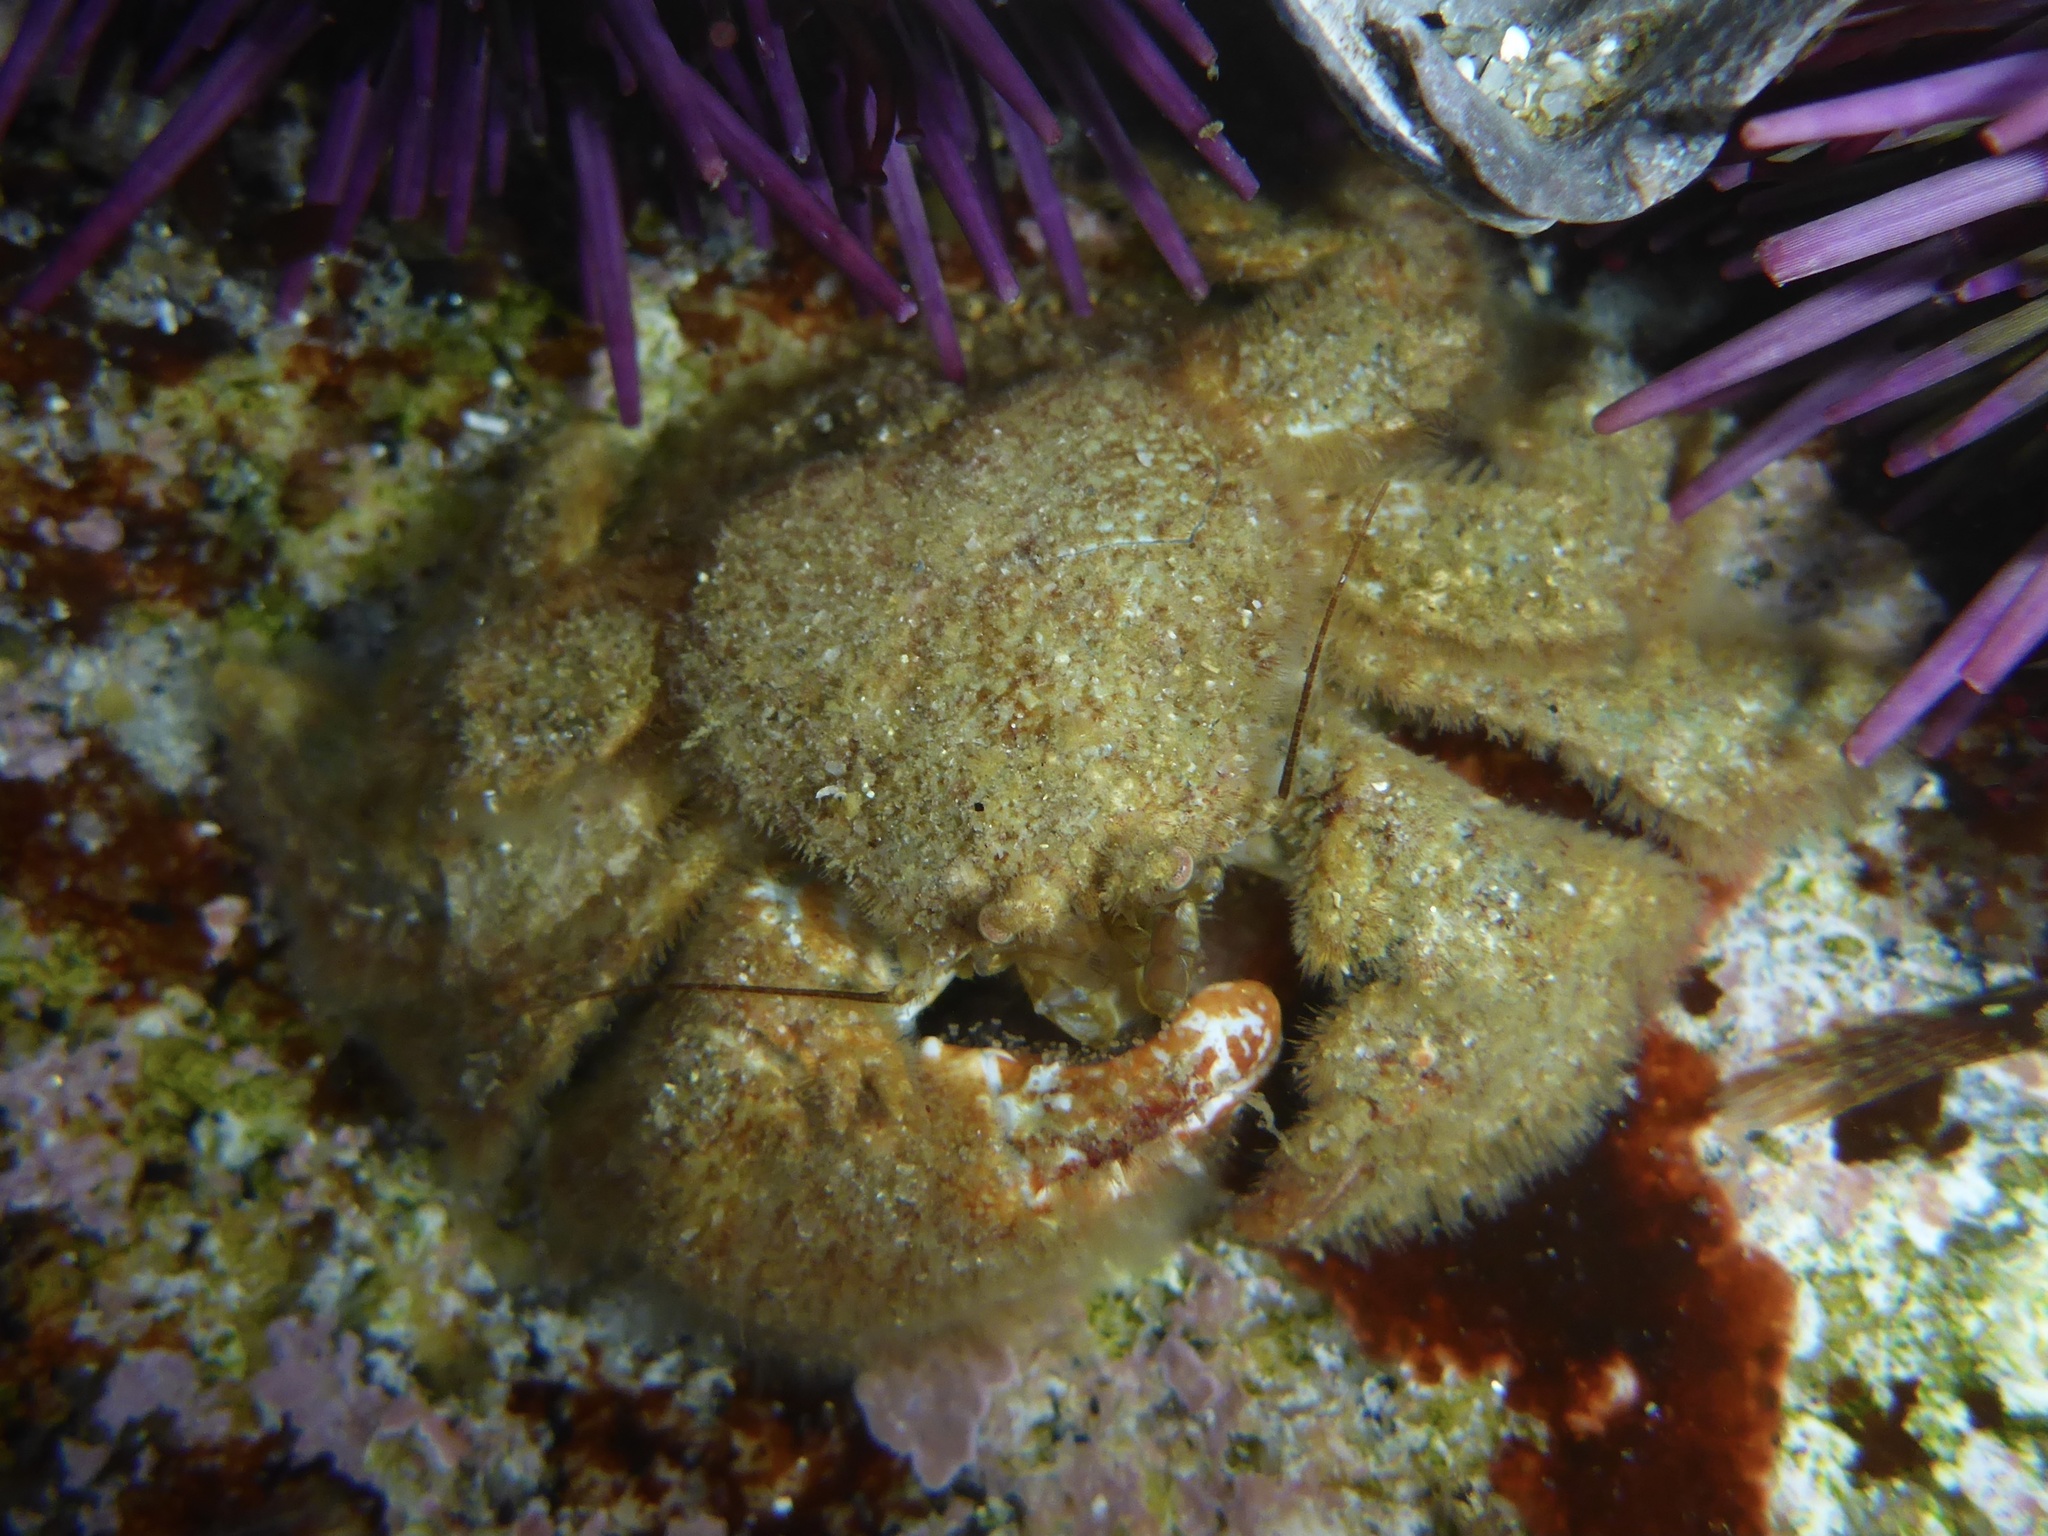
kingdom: Animalia
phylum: Arthropoda
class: Malacostraca
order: Decapoda
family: Hapalogastridae
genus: Hapalogaster
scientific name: Hapalogaster cavicauda
